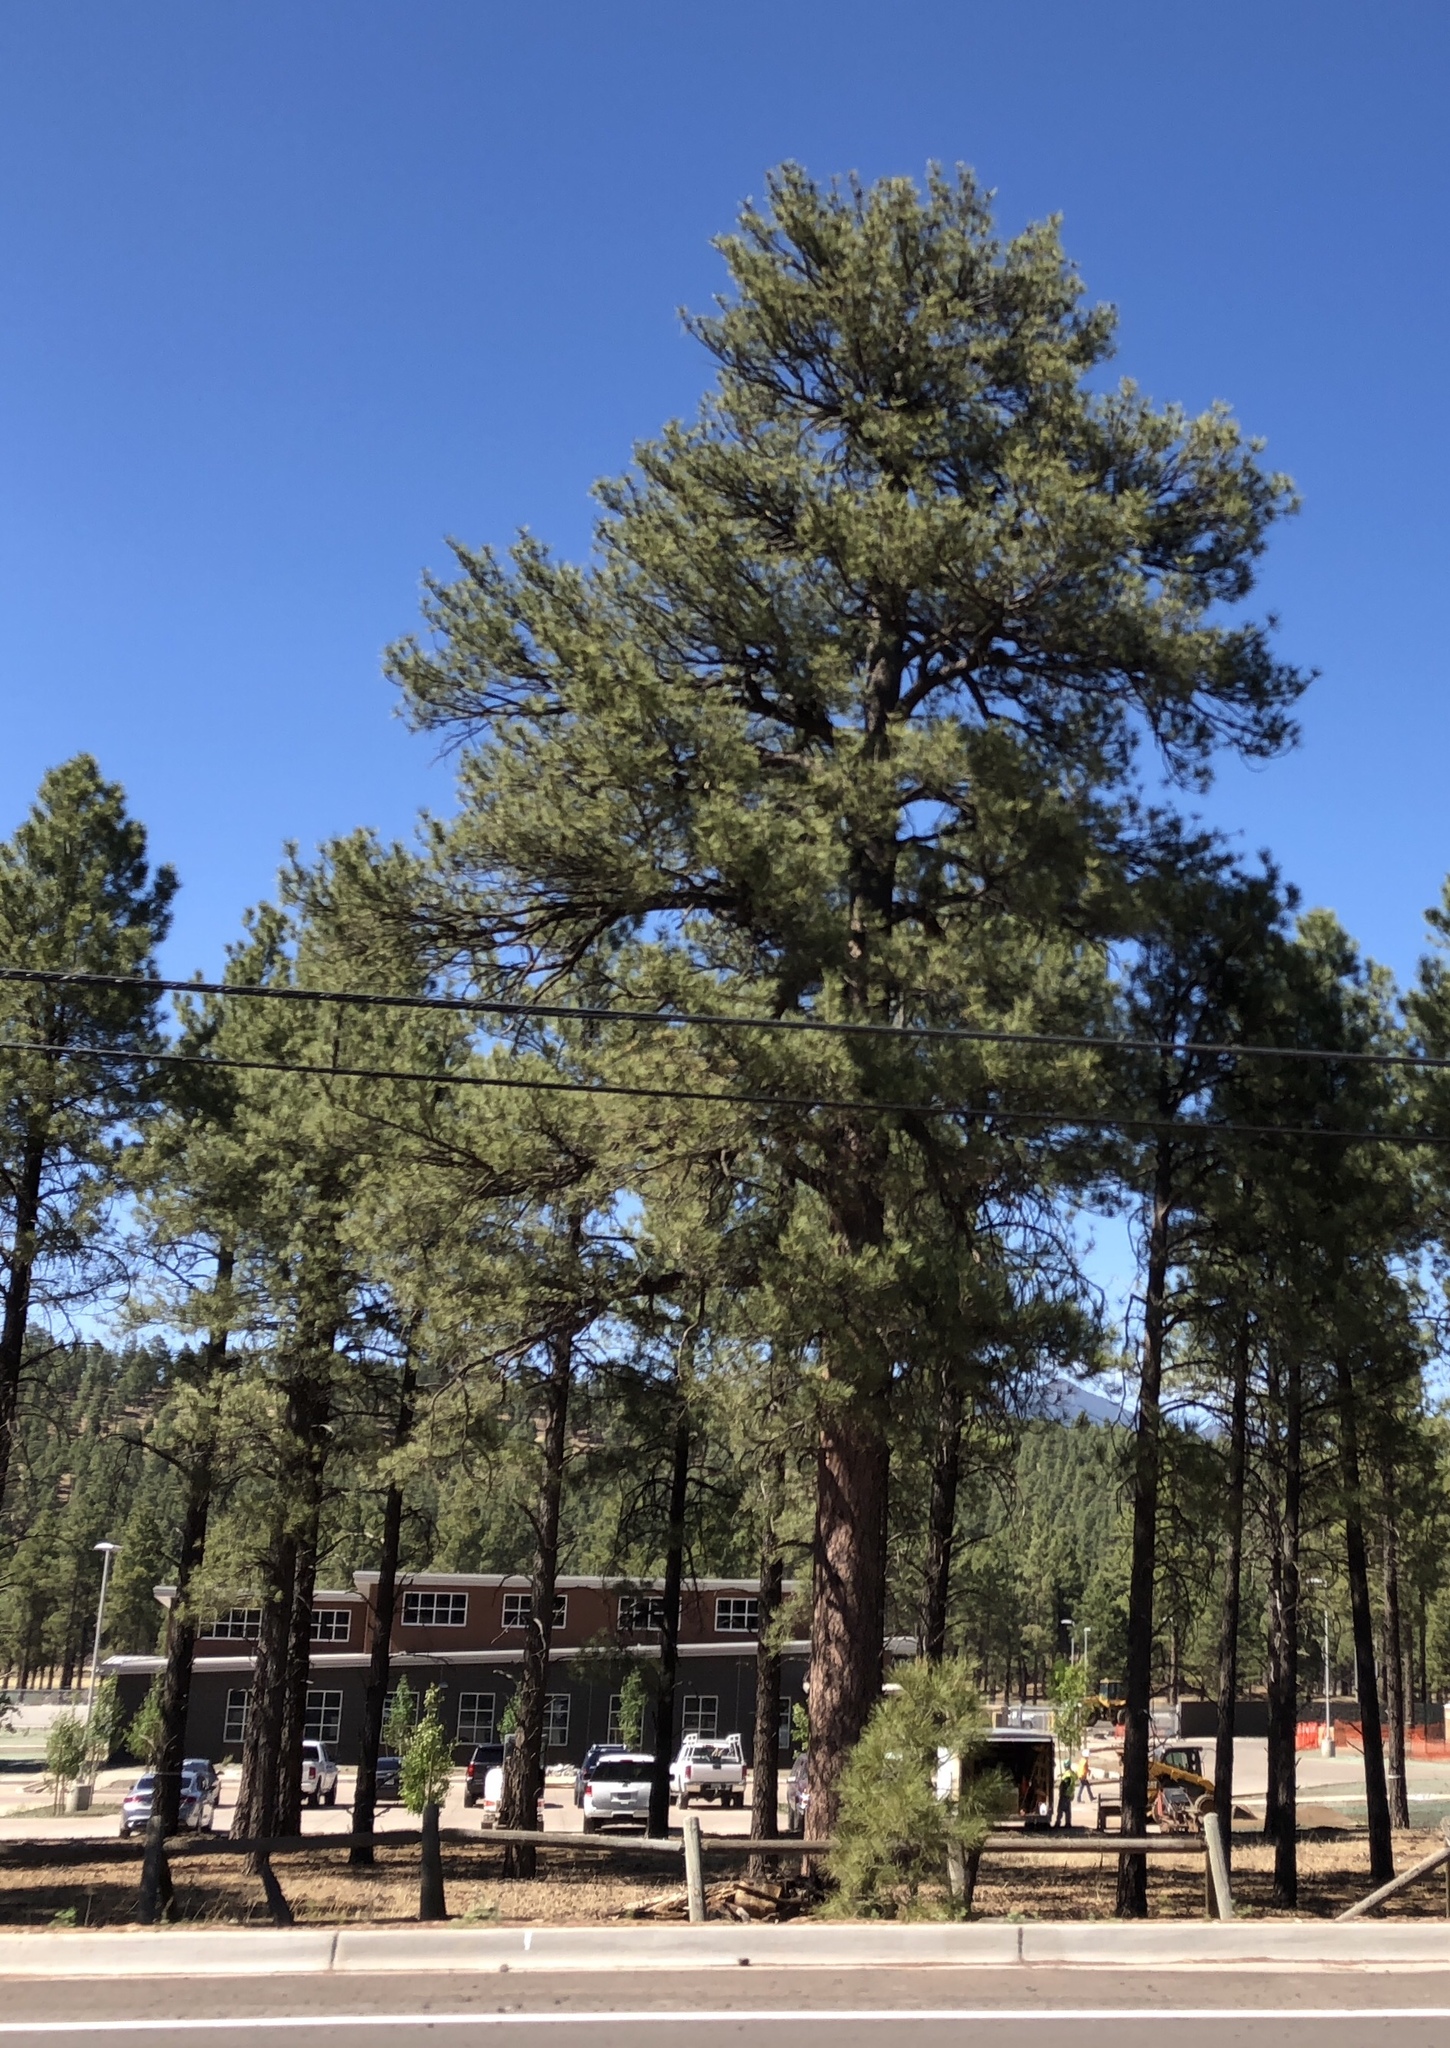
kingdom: Plantae
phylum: Tracheophyta
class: Pinopsida
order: Pinales
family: Pinaceae
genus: Pinus
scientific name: Pinus ponderosa
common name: Western yellow-pine
